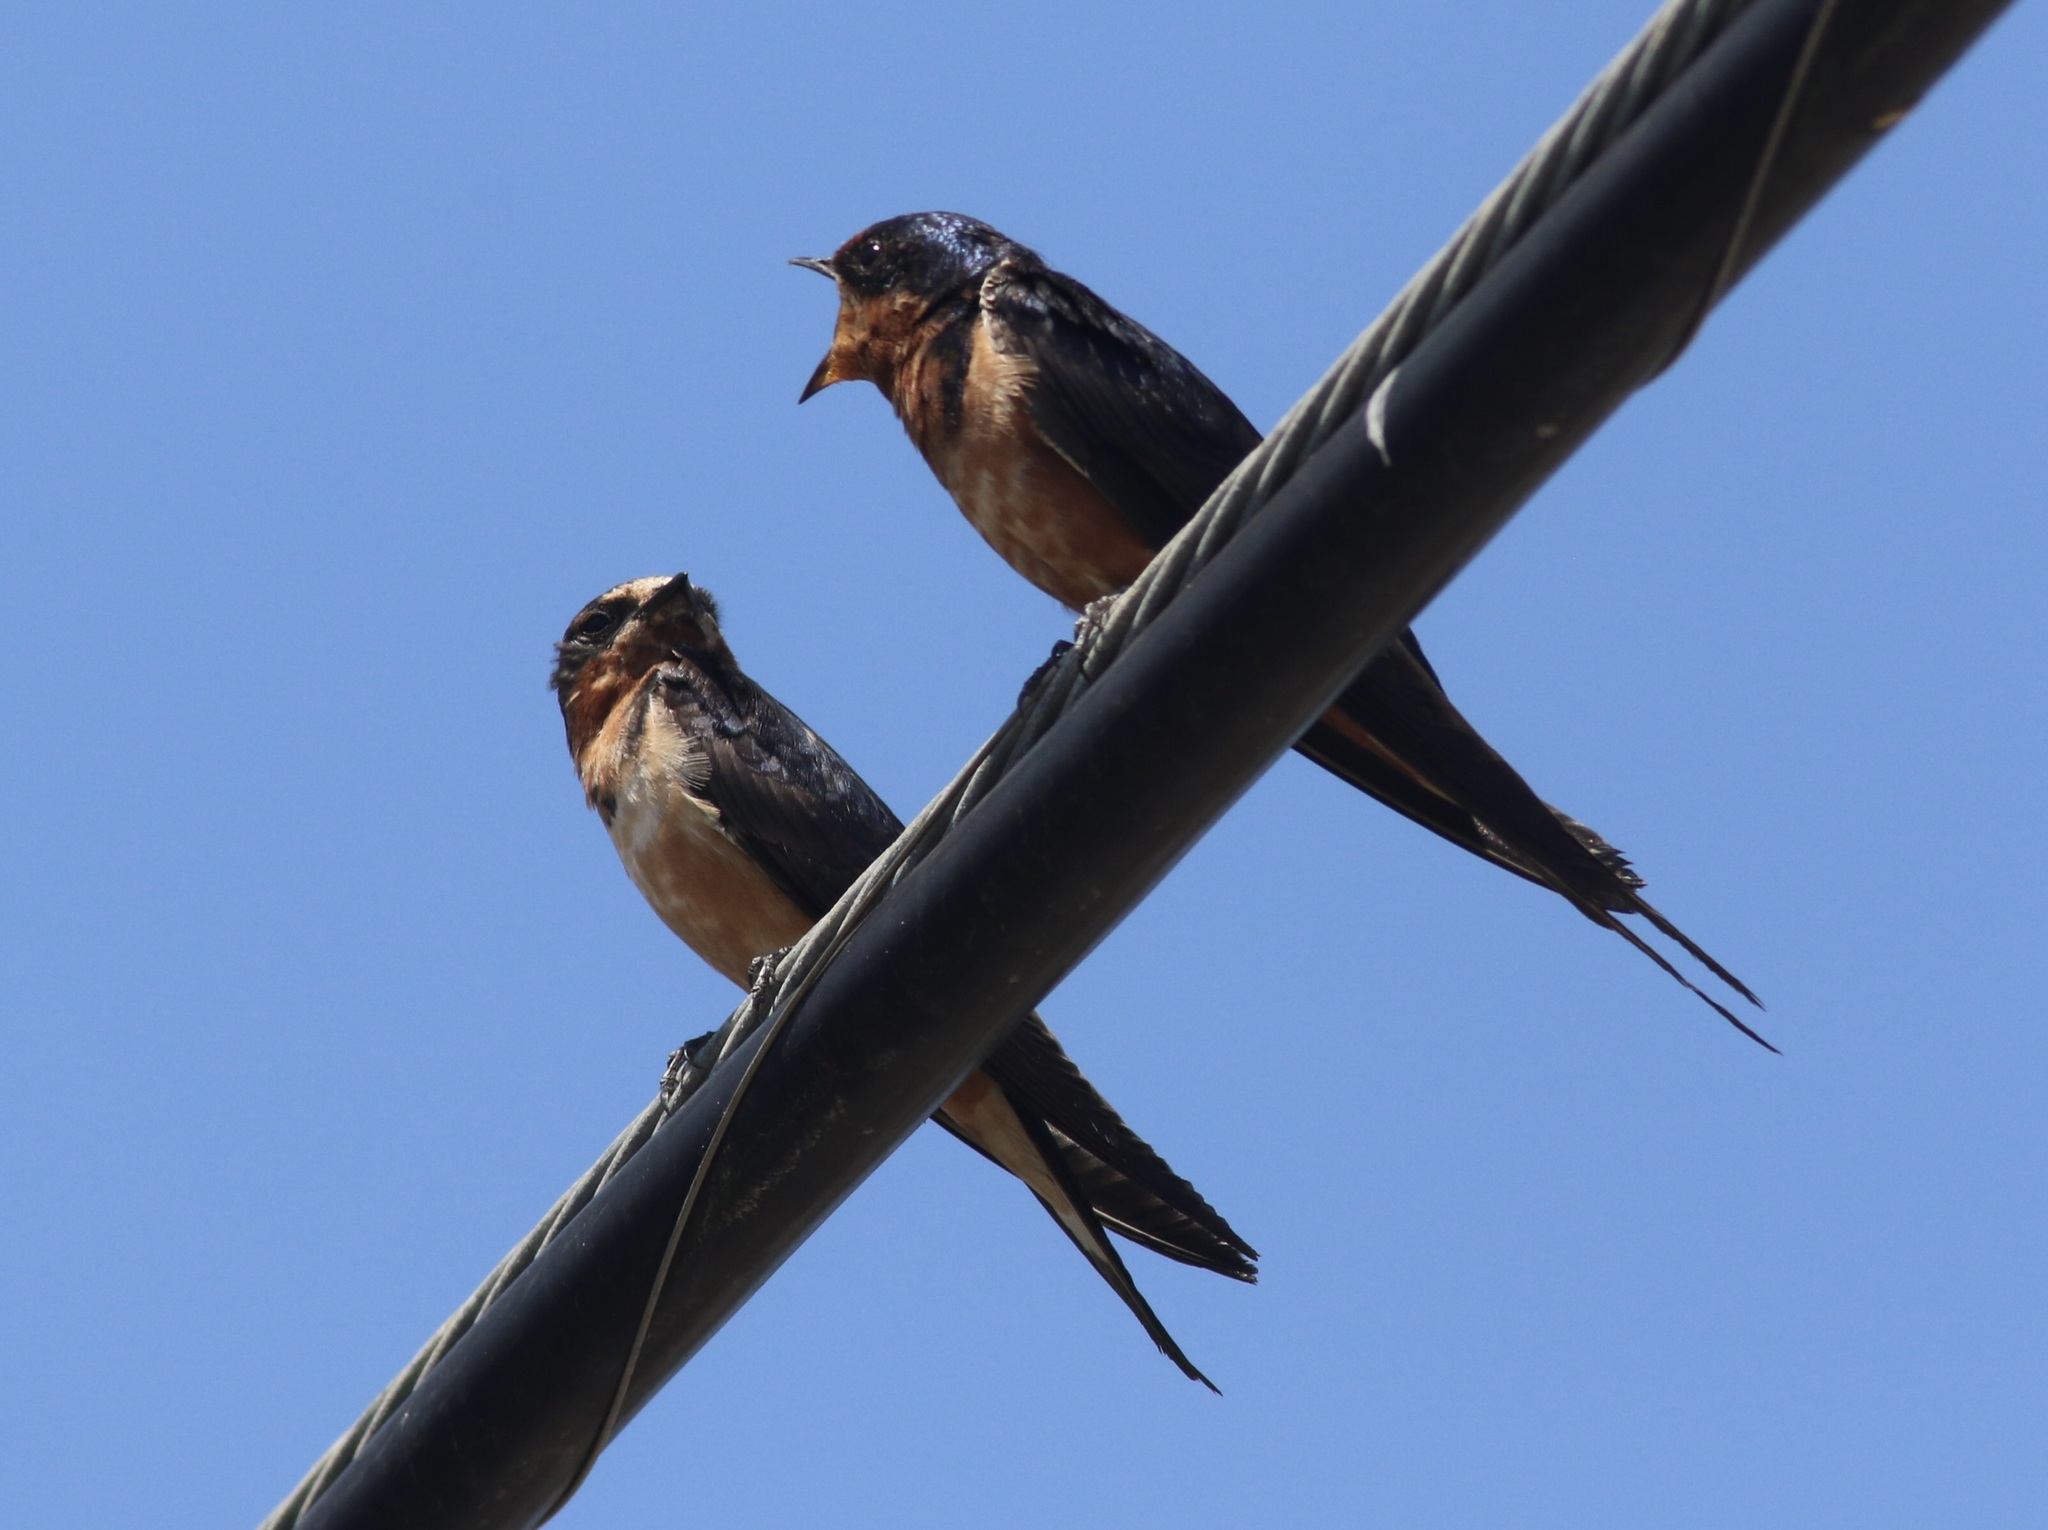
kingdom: Animalia
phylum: Chordata
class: Aves
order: Passeriformes
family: Hirundinidae
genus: Hirundo
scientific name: Hirundo rustica
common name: Barn swallow
